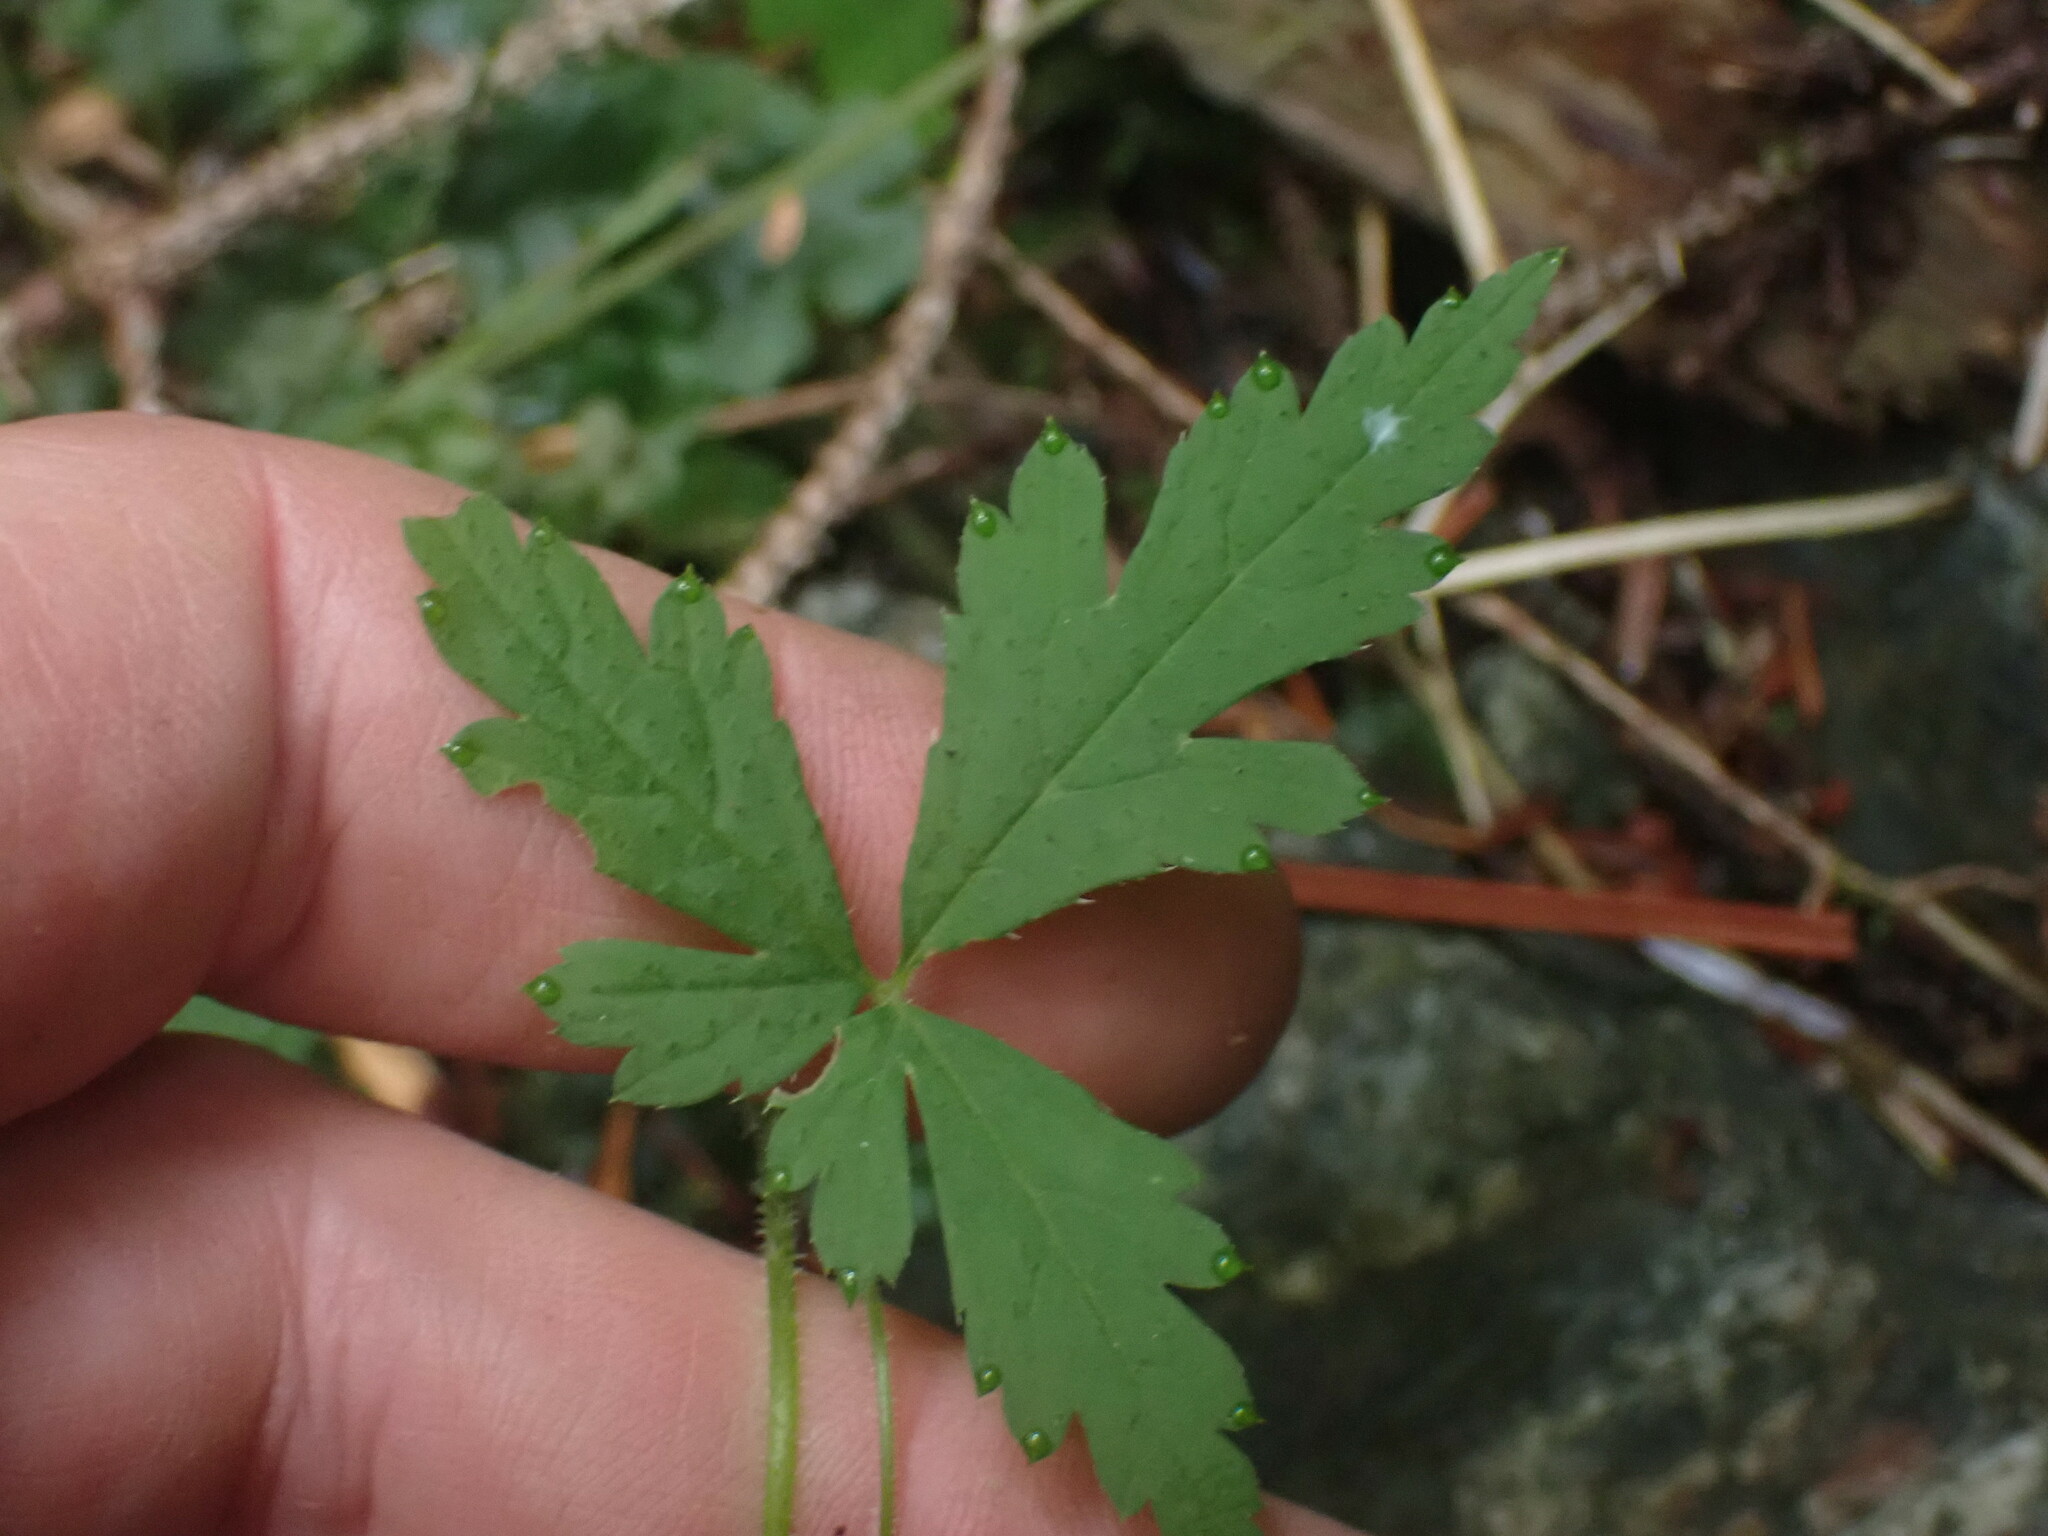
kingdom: Plantae
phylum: Tracheophyta
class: Magnoliopsida
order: Saxifragales
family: Saxifragaceae
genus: Tiarella
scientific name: Tiarella trifoliata
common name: Sugar-scoop
